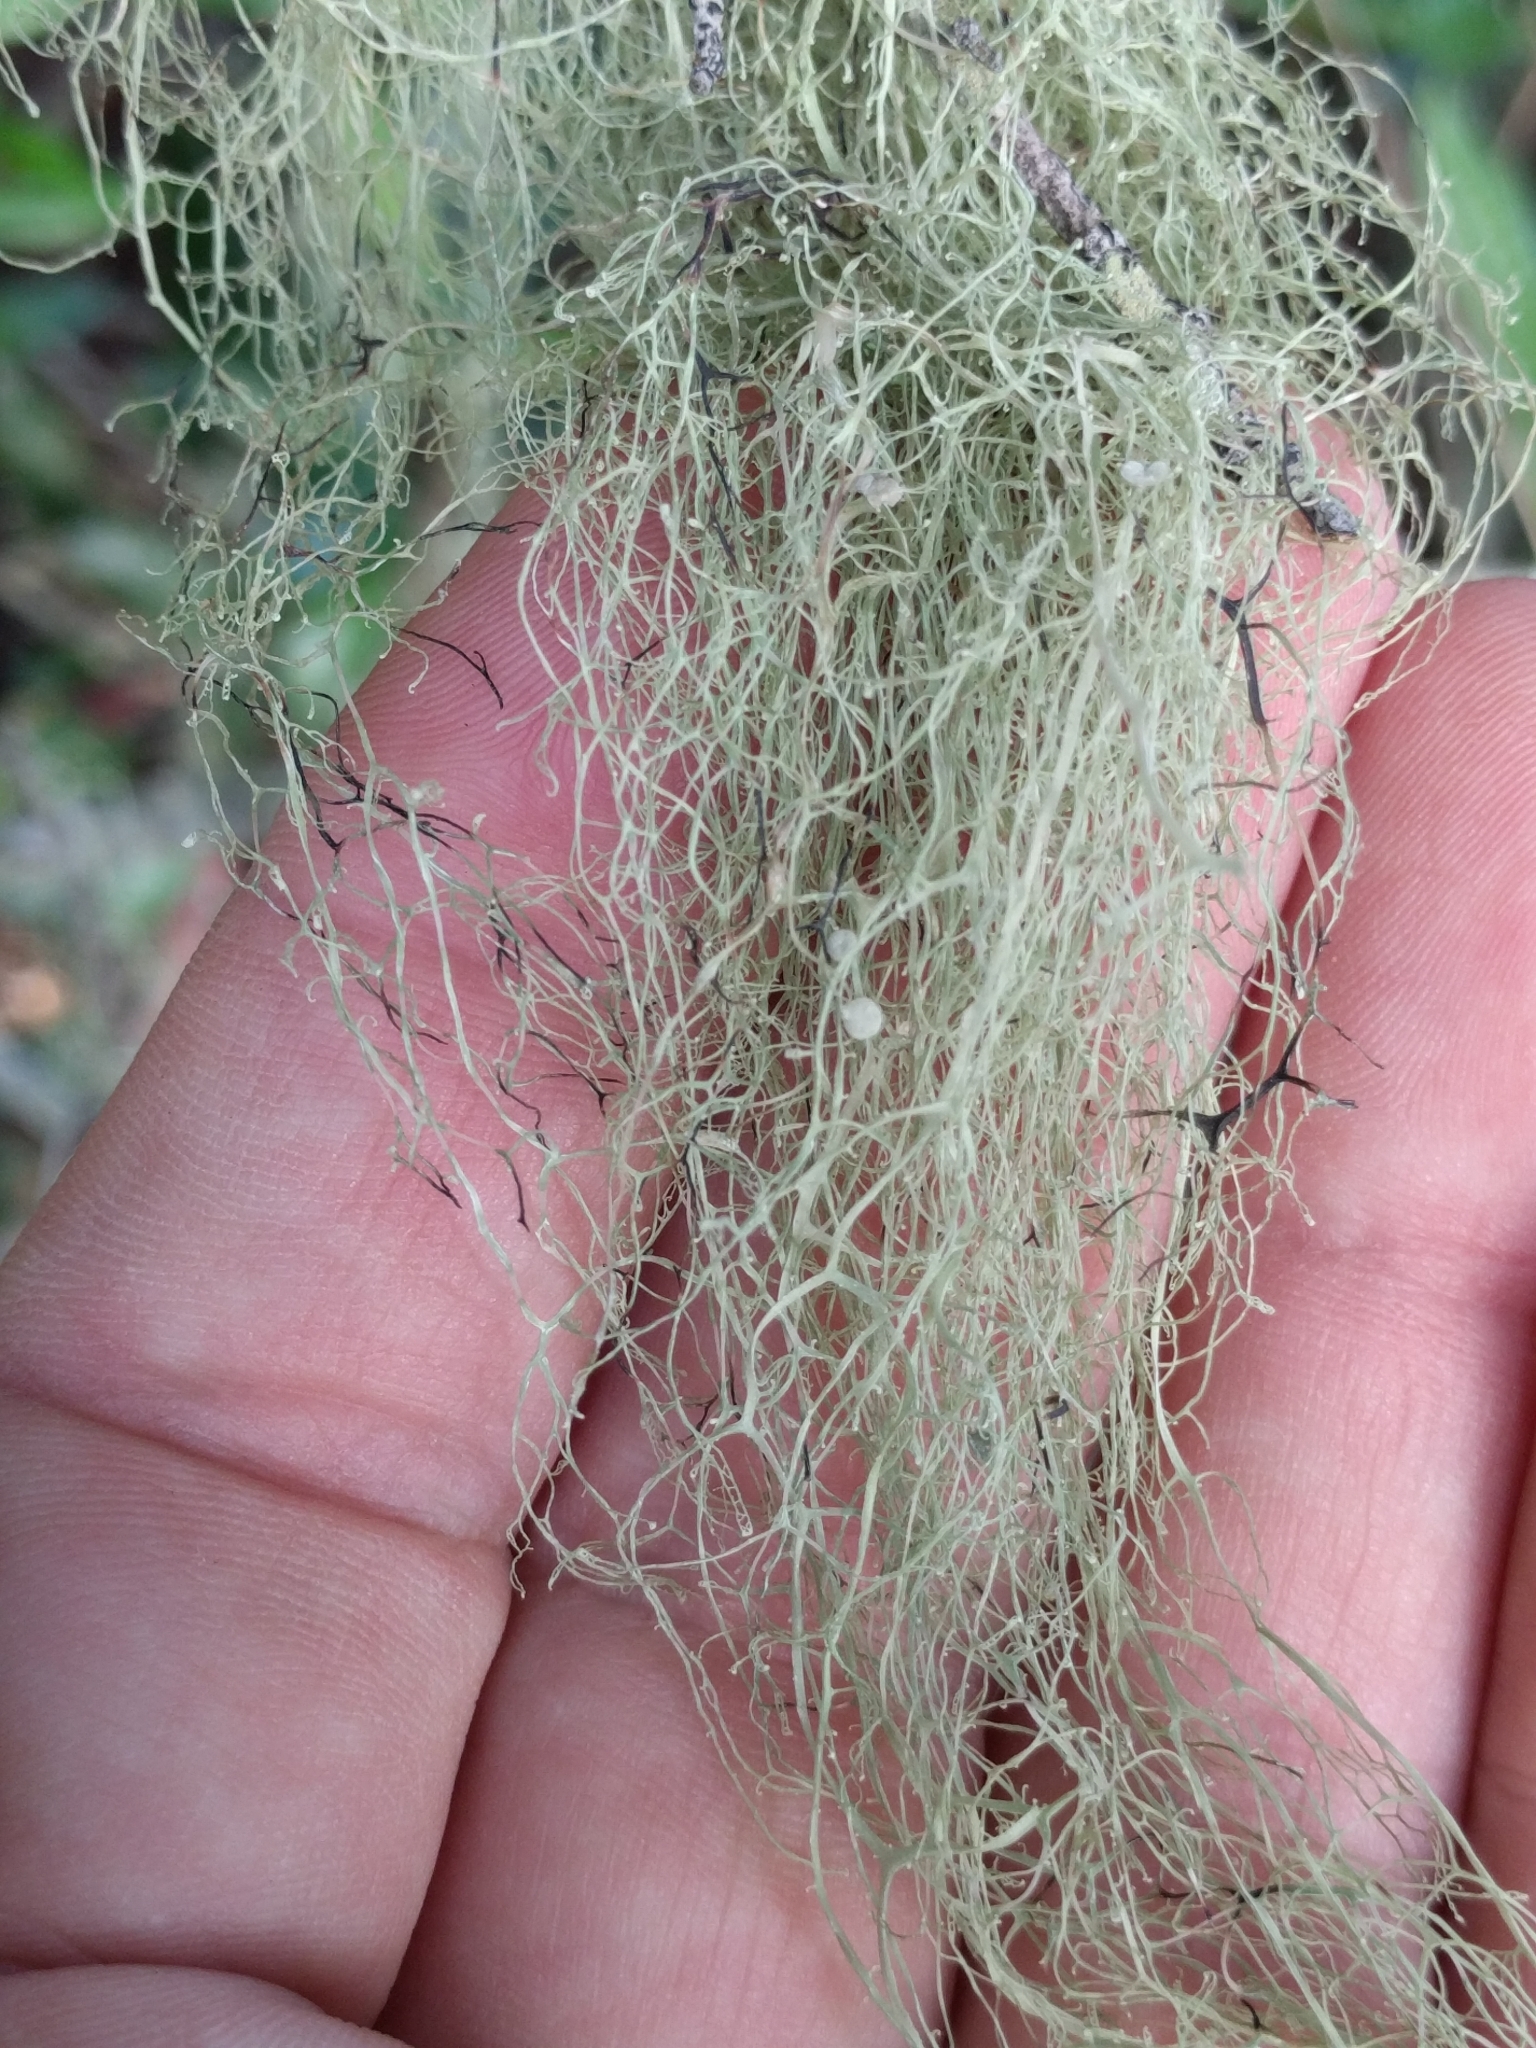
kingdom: Fungi
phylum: Ascomycota
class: Lecanoromycetes
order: Lecanorales
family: Ramalinaceae
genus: Ramalina
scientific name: Ramalina menziesii
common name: Lace lichen
